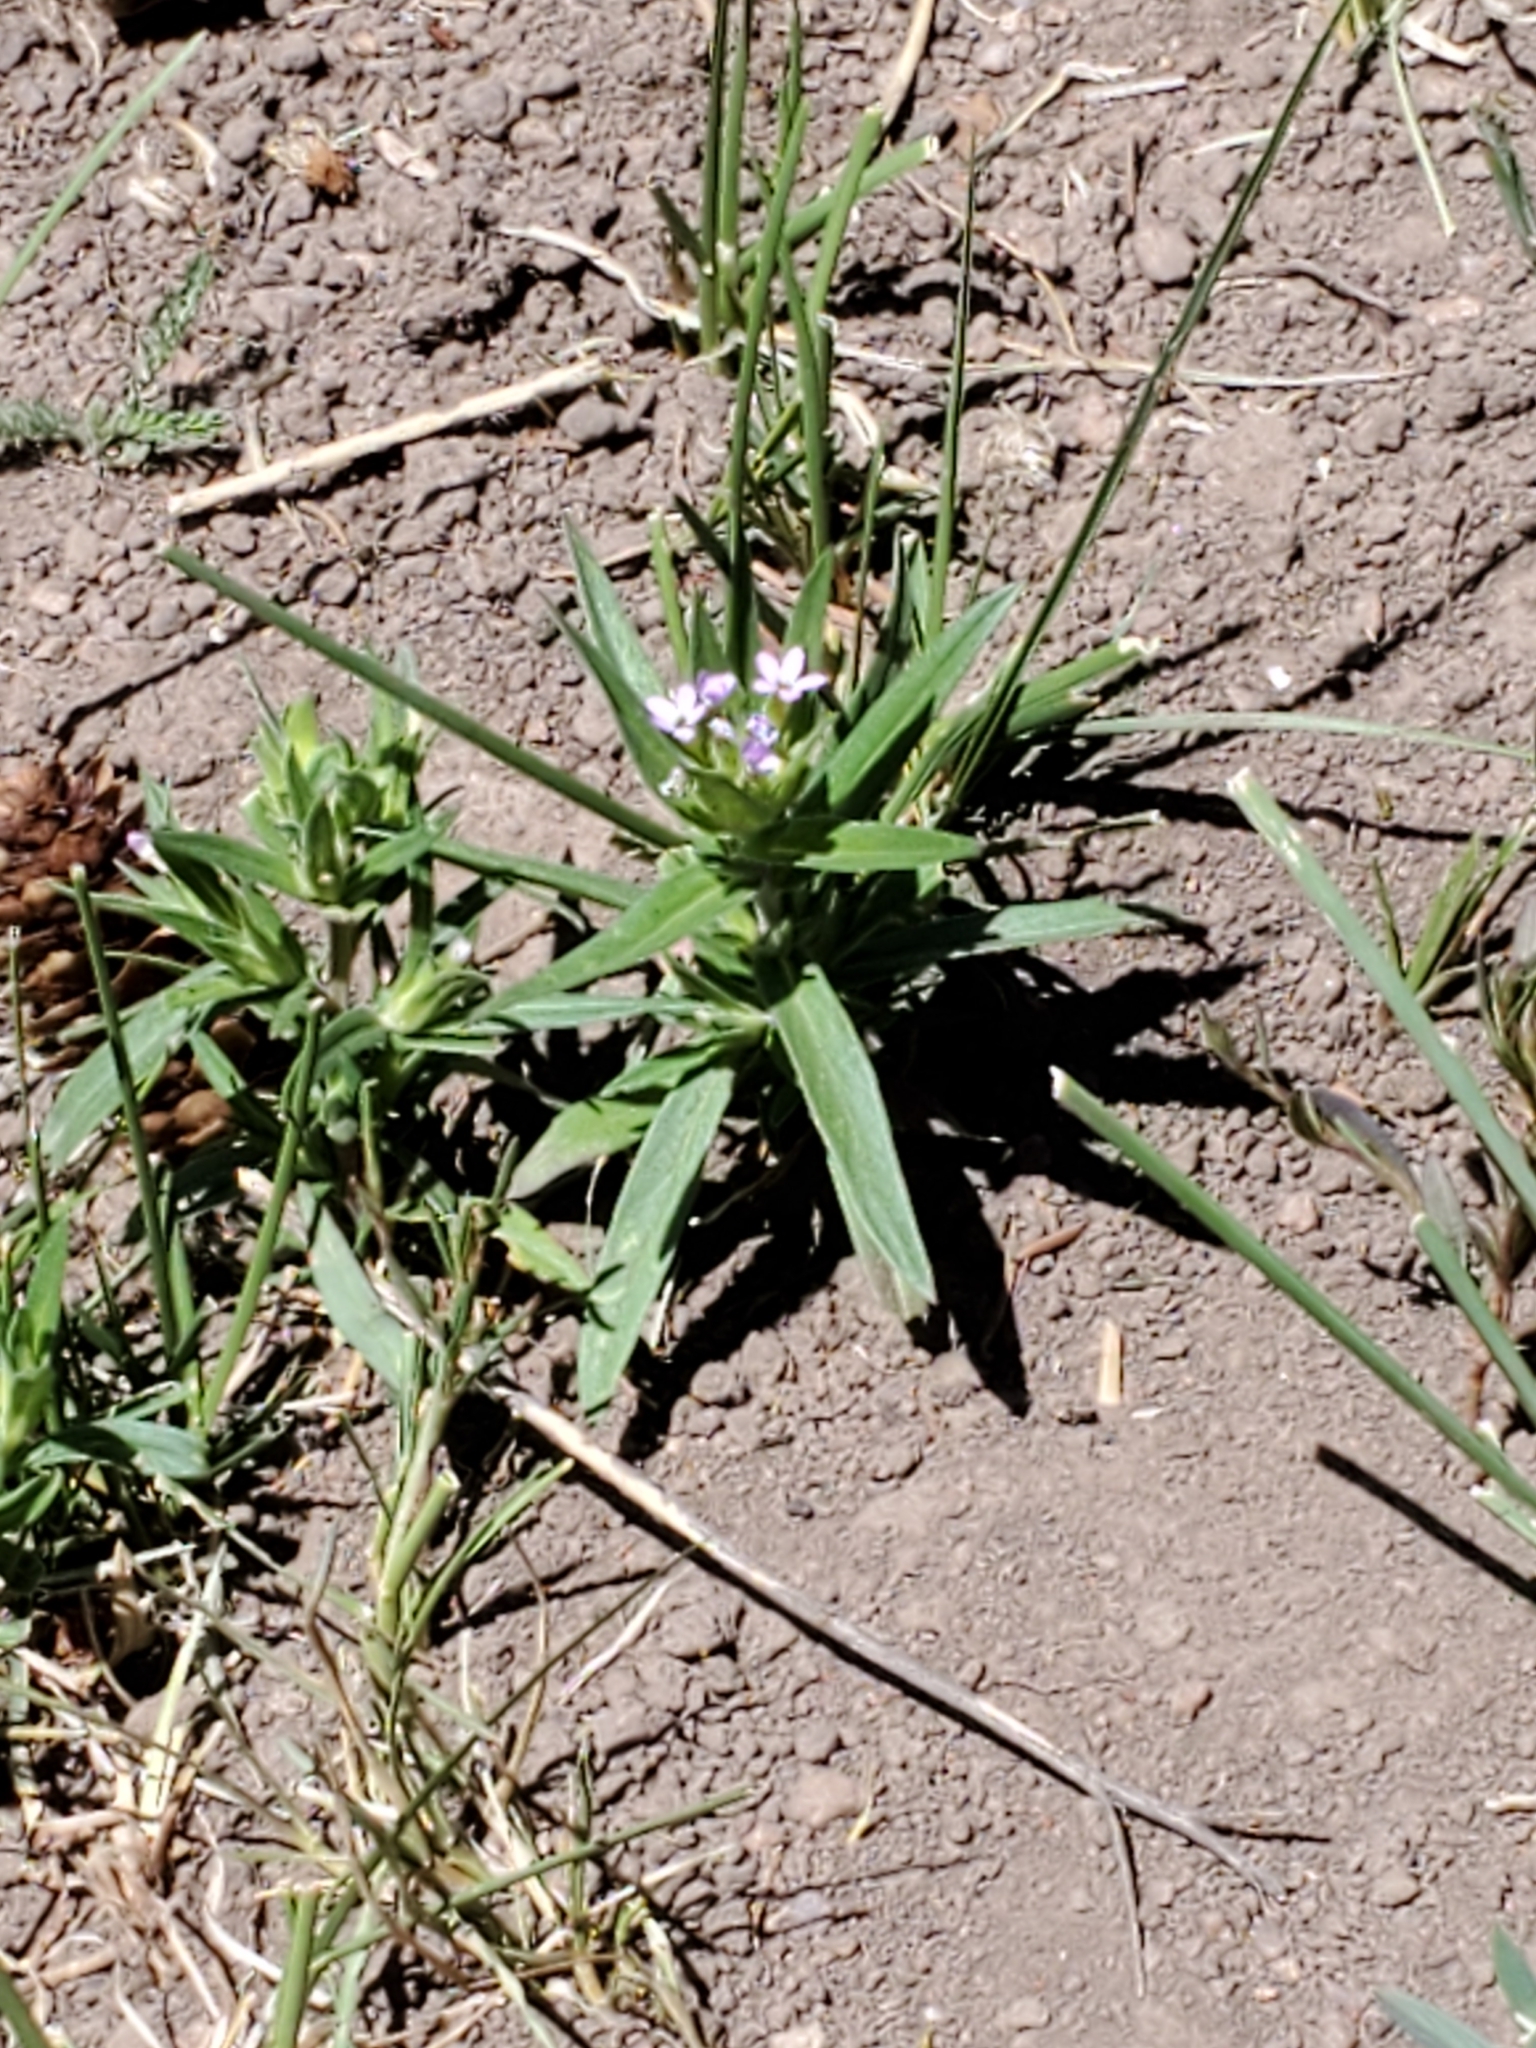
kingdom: Plantae
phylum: Tracheophyta
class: Magnoliopsida
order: Ericales
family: Polemoniaceae
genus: Collomia
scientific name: Collomia linearis
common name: Tiny trumpet
